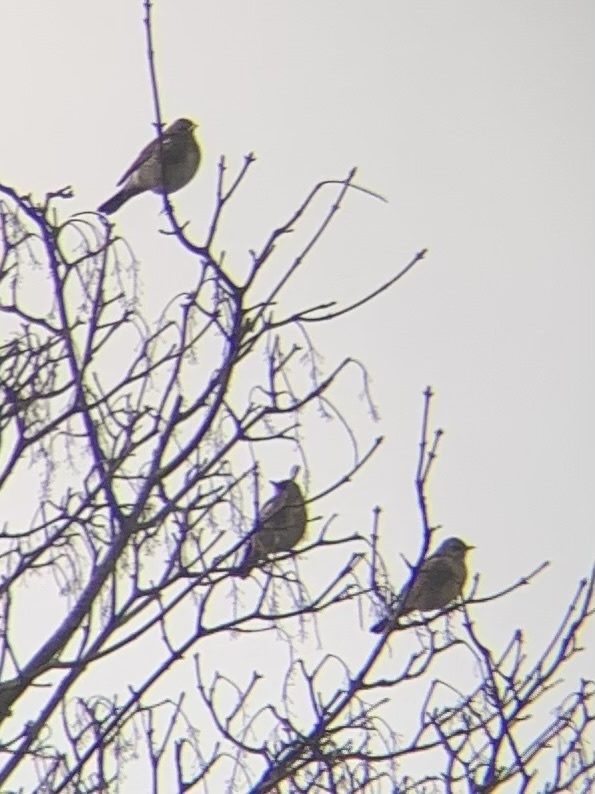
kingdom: Animalia
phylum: Chordata
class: Aves
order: Passeriformes
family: Turdidae
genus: Turdus
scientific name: Turdus pilaris
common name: Fieldfare
